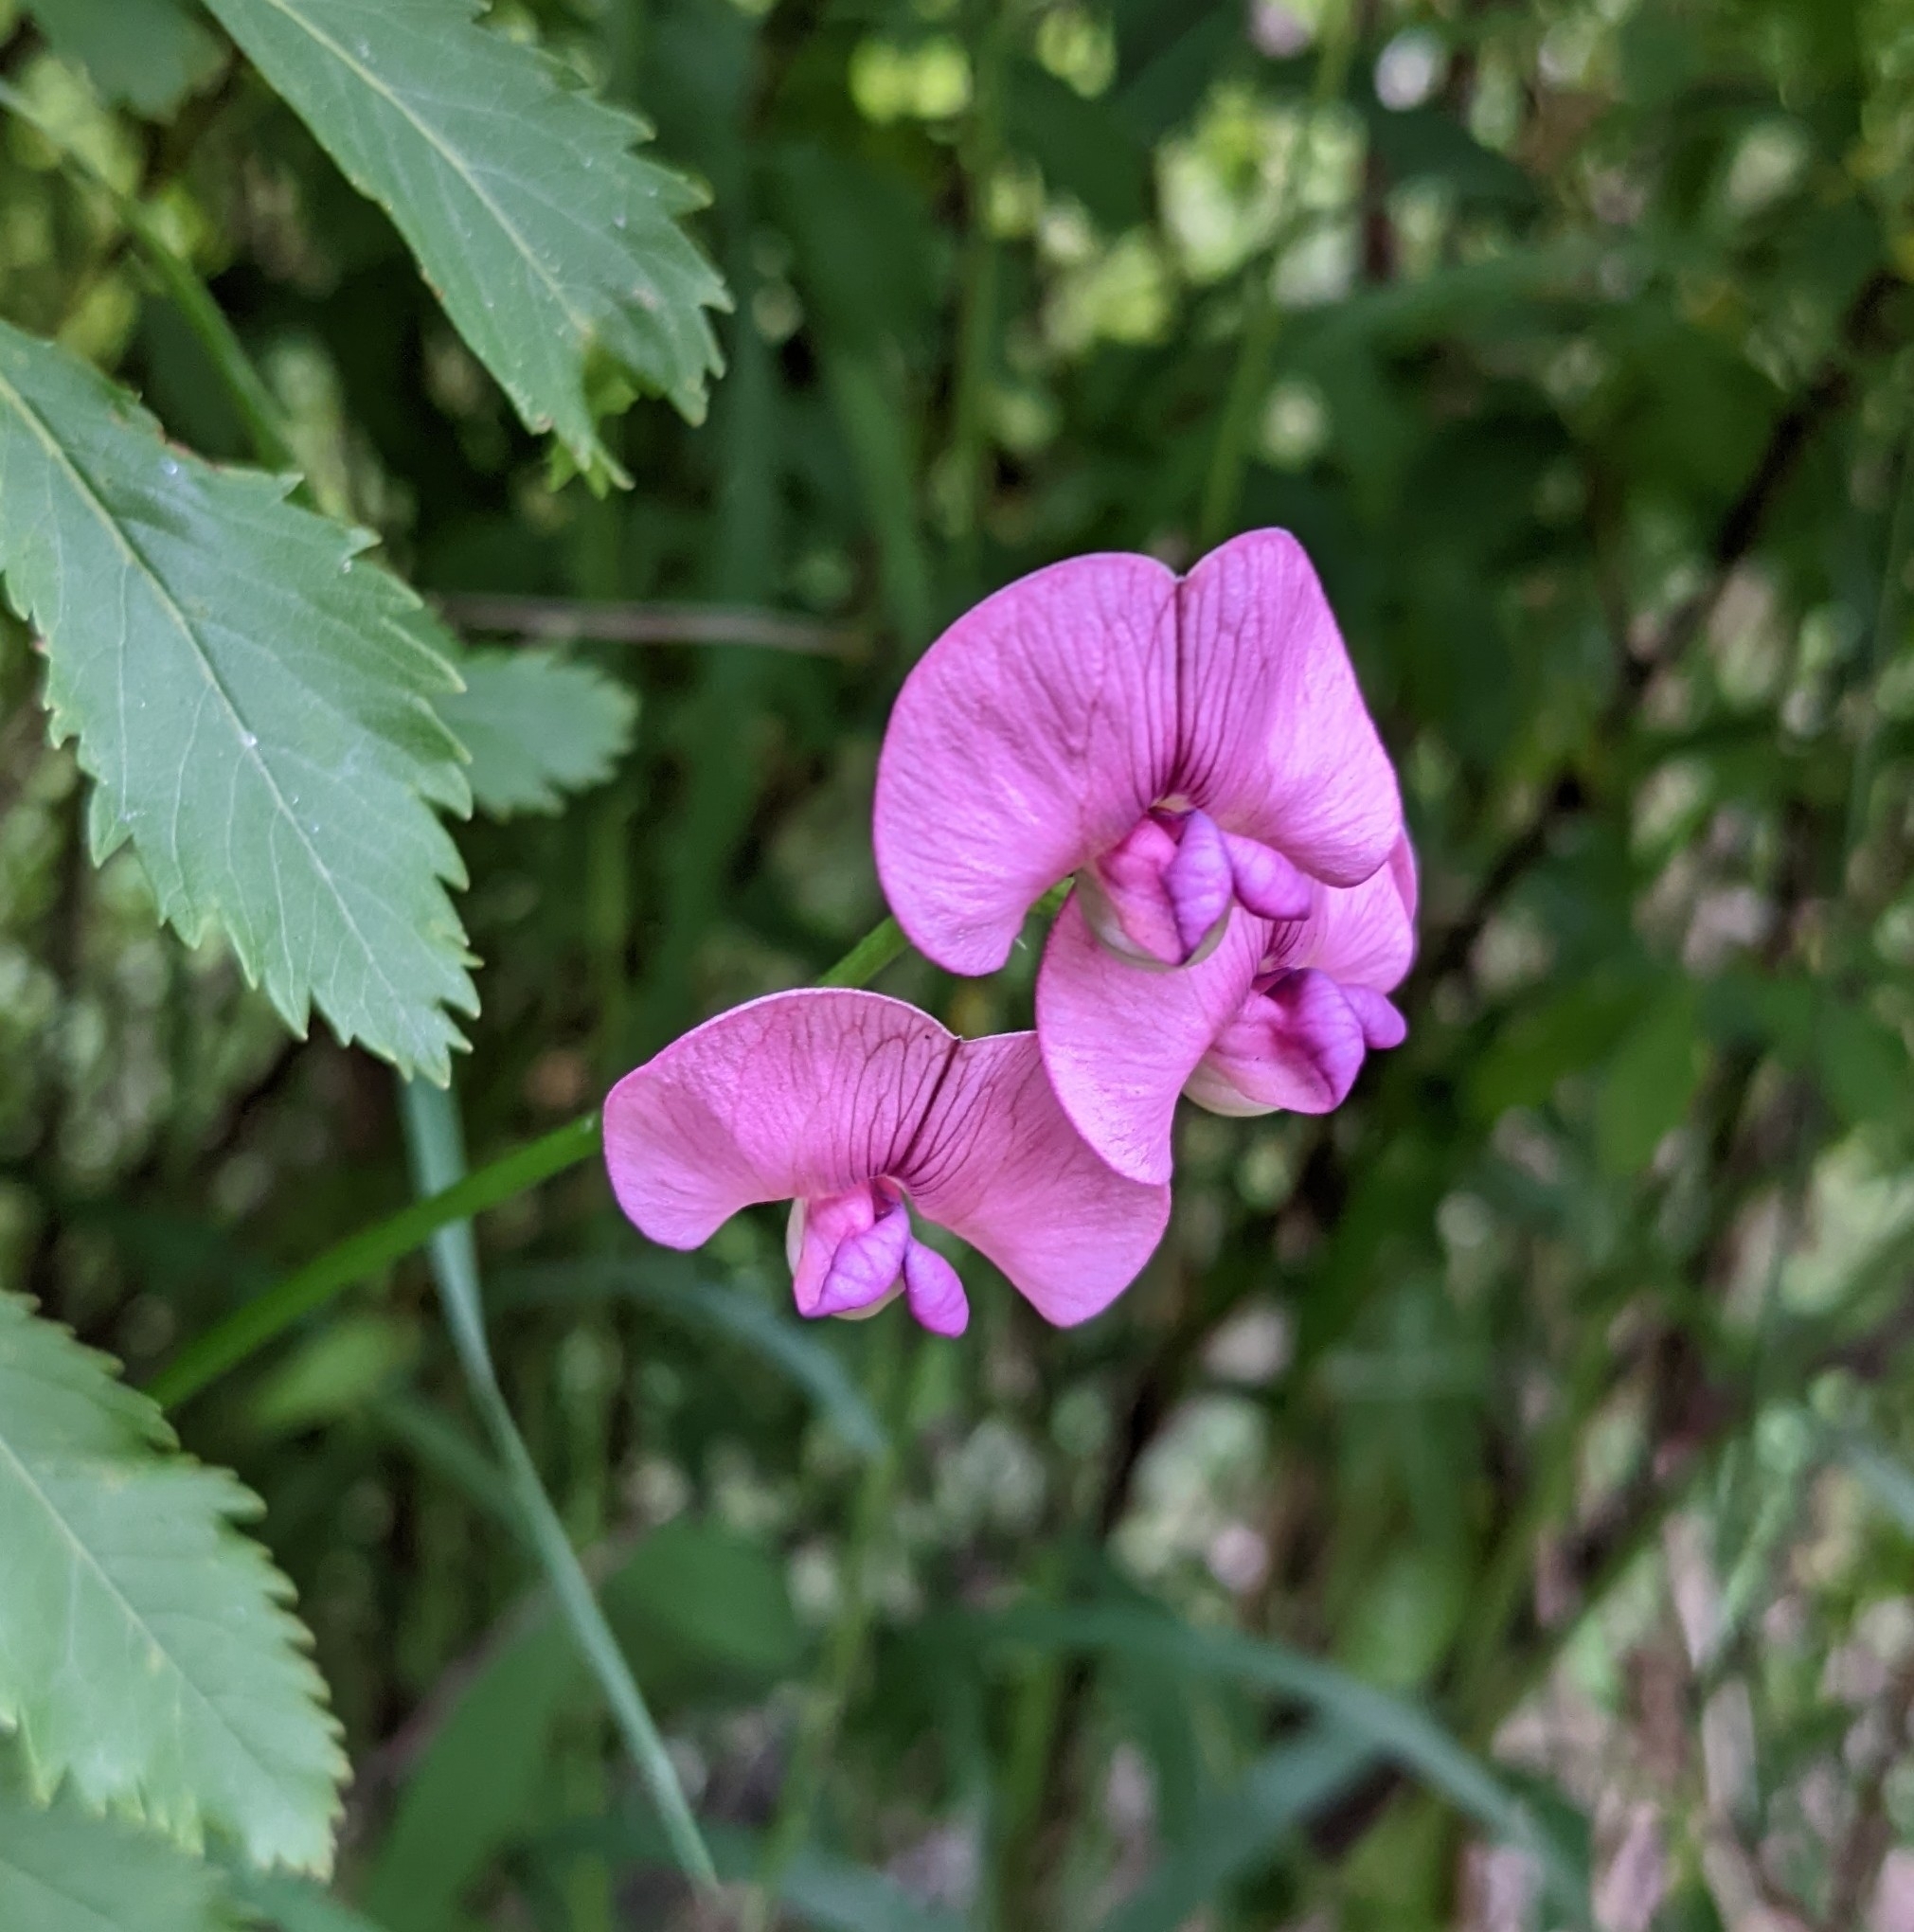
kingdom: Plantae
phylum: Tracheophyta
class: Magnoliopsida
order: Fabales
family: Fabaceae
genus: Lathyrus
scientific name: Lathyrus sylvestris
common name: Flat pea
